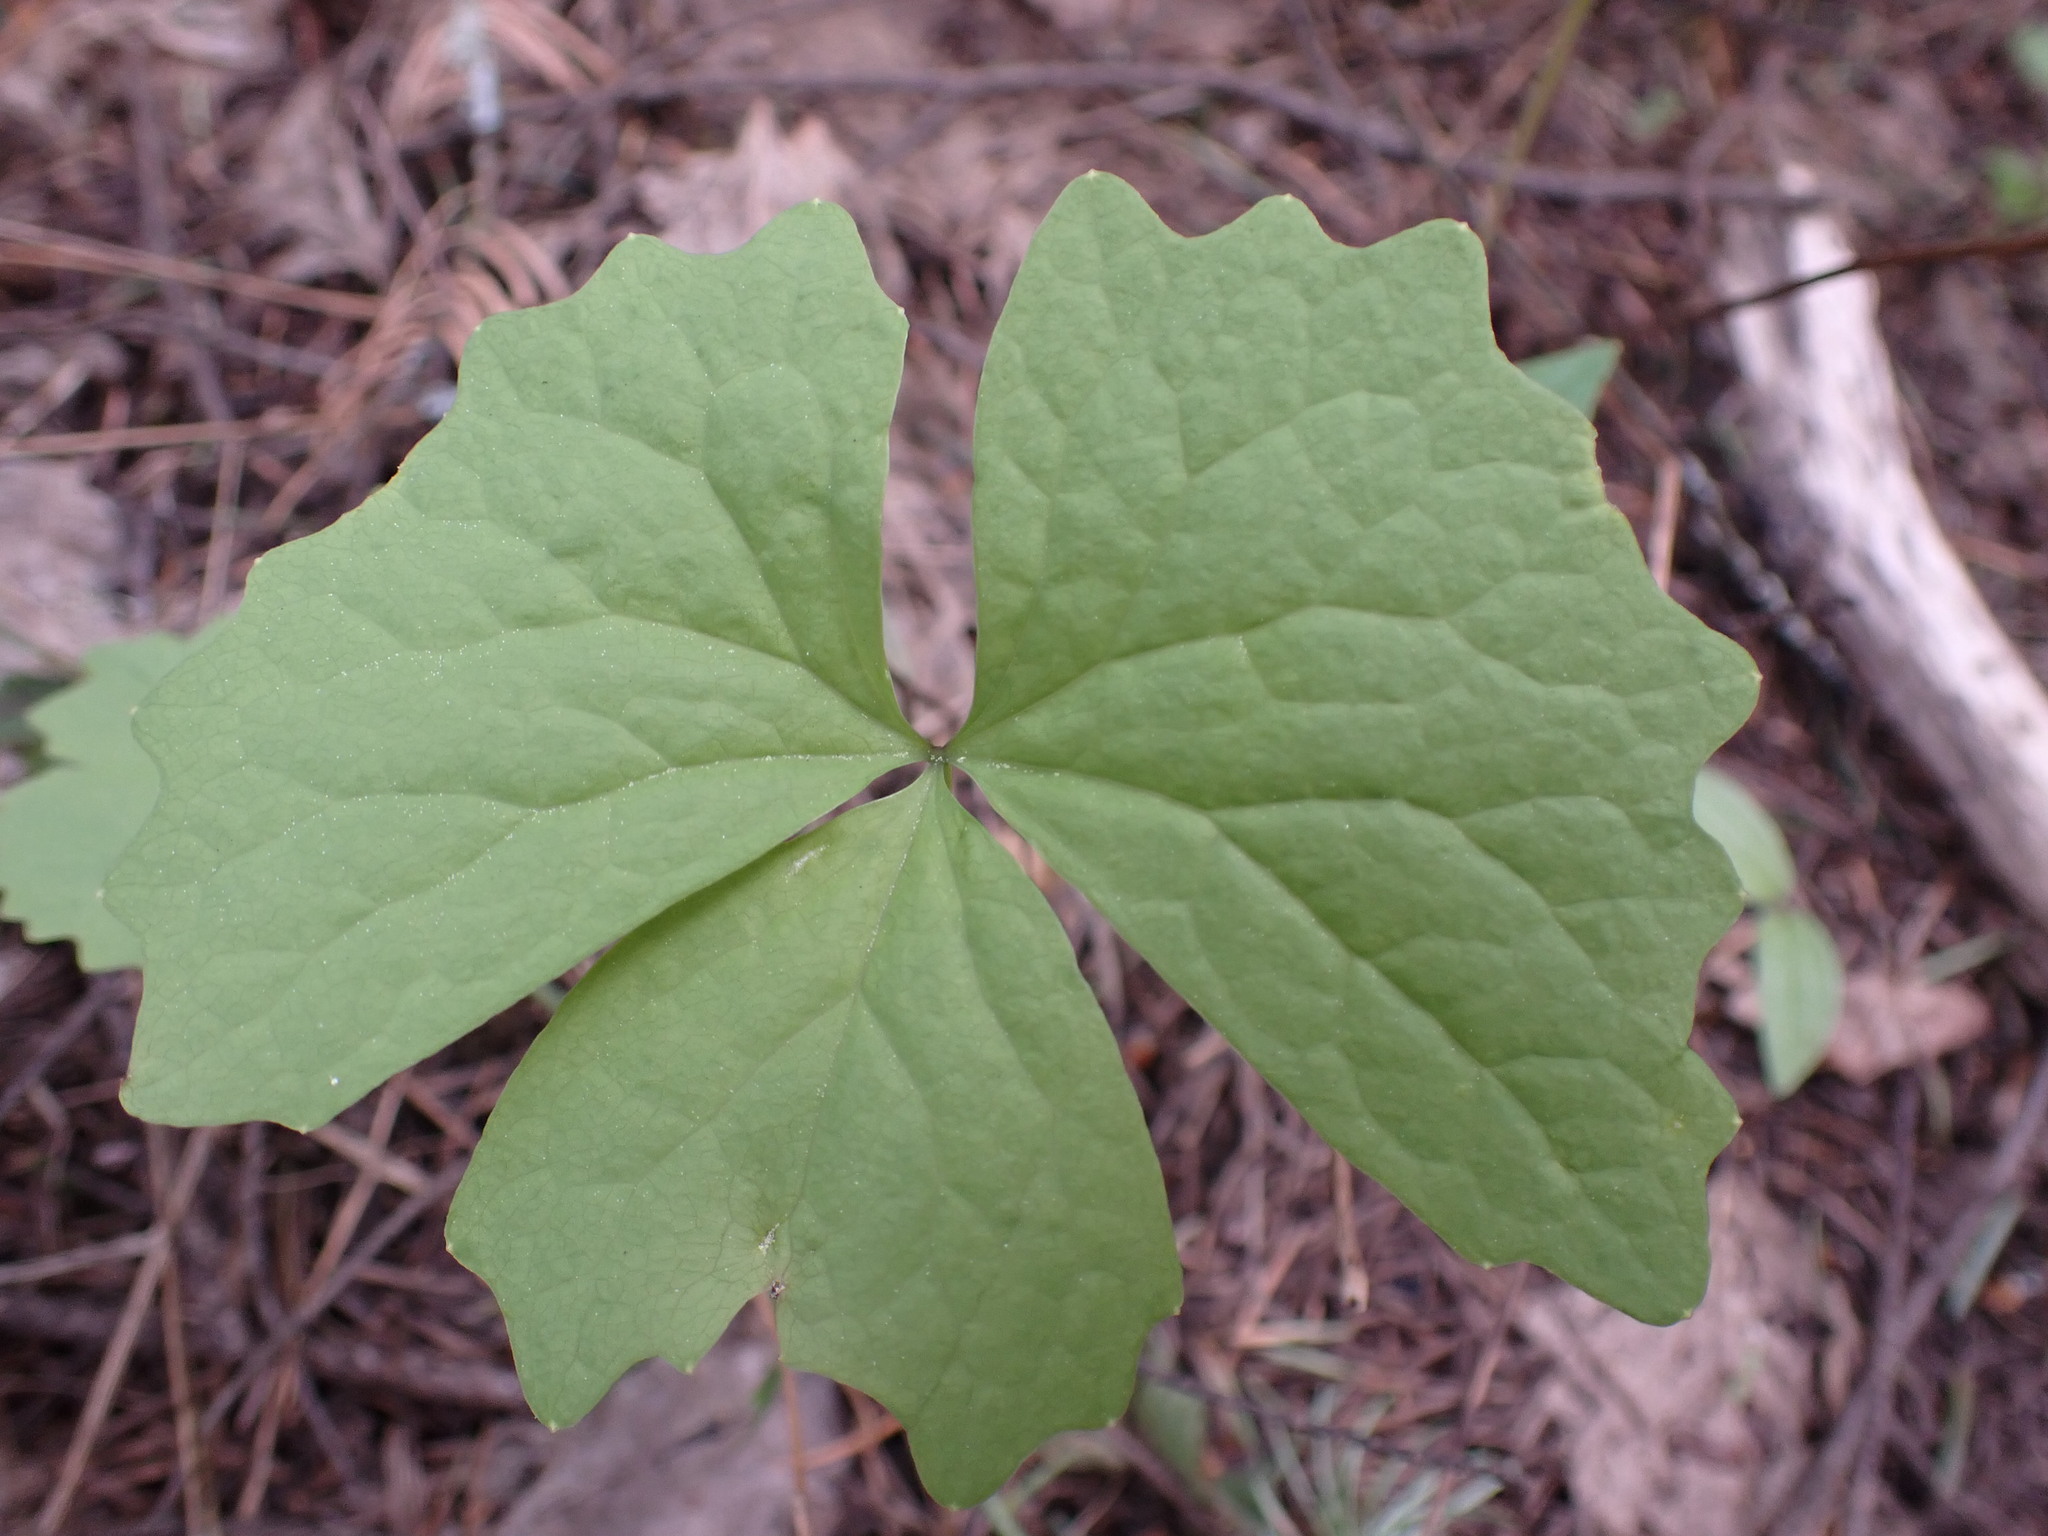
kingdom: Plantae
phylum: Tracheophyta
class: Magnoliopsida
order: Ranunculales
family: Berberidaceae
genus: Achlys
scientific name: Achlys triphylla
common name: Vanilla-leaf
